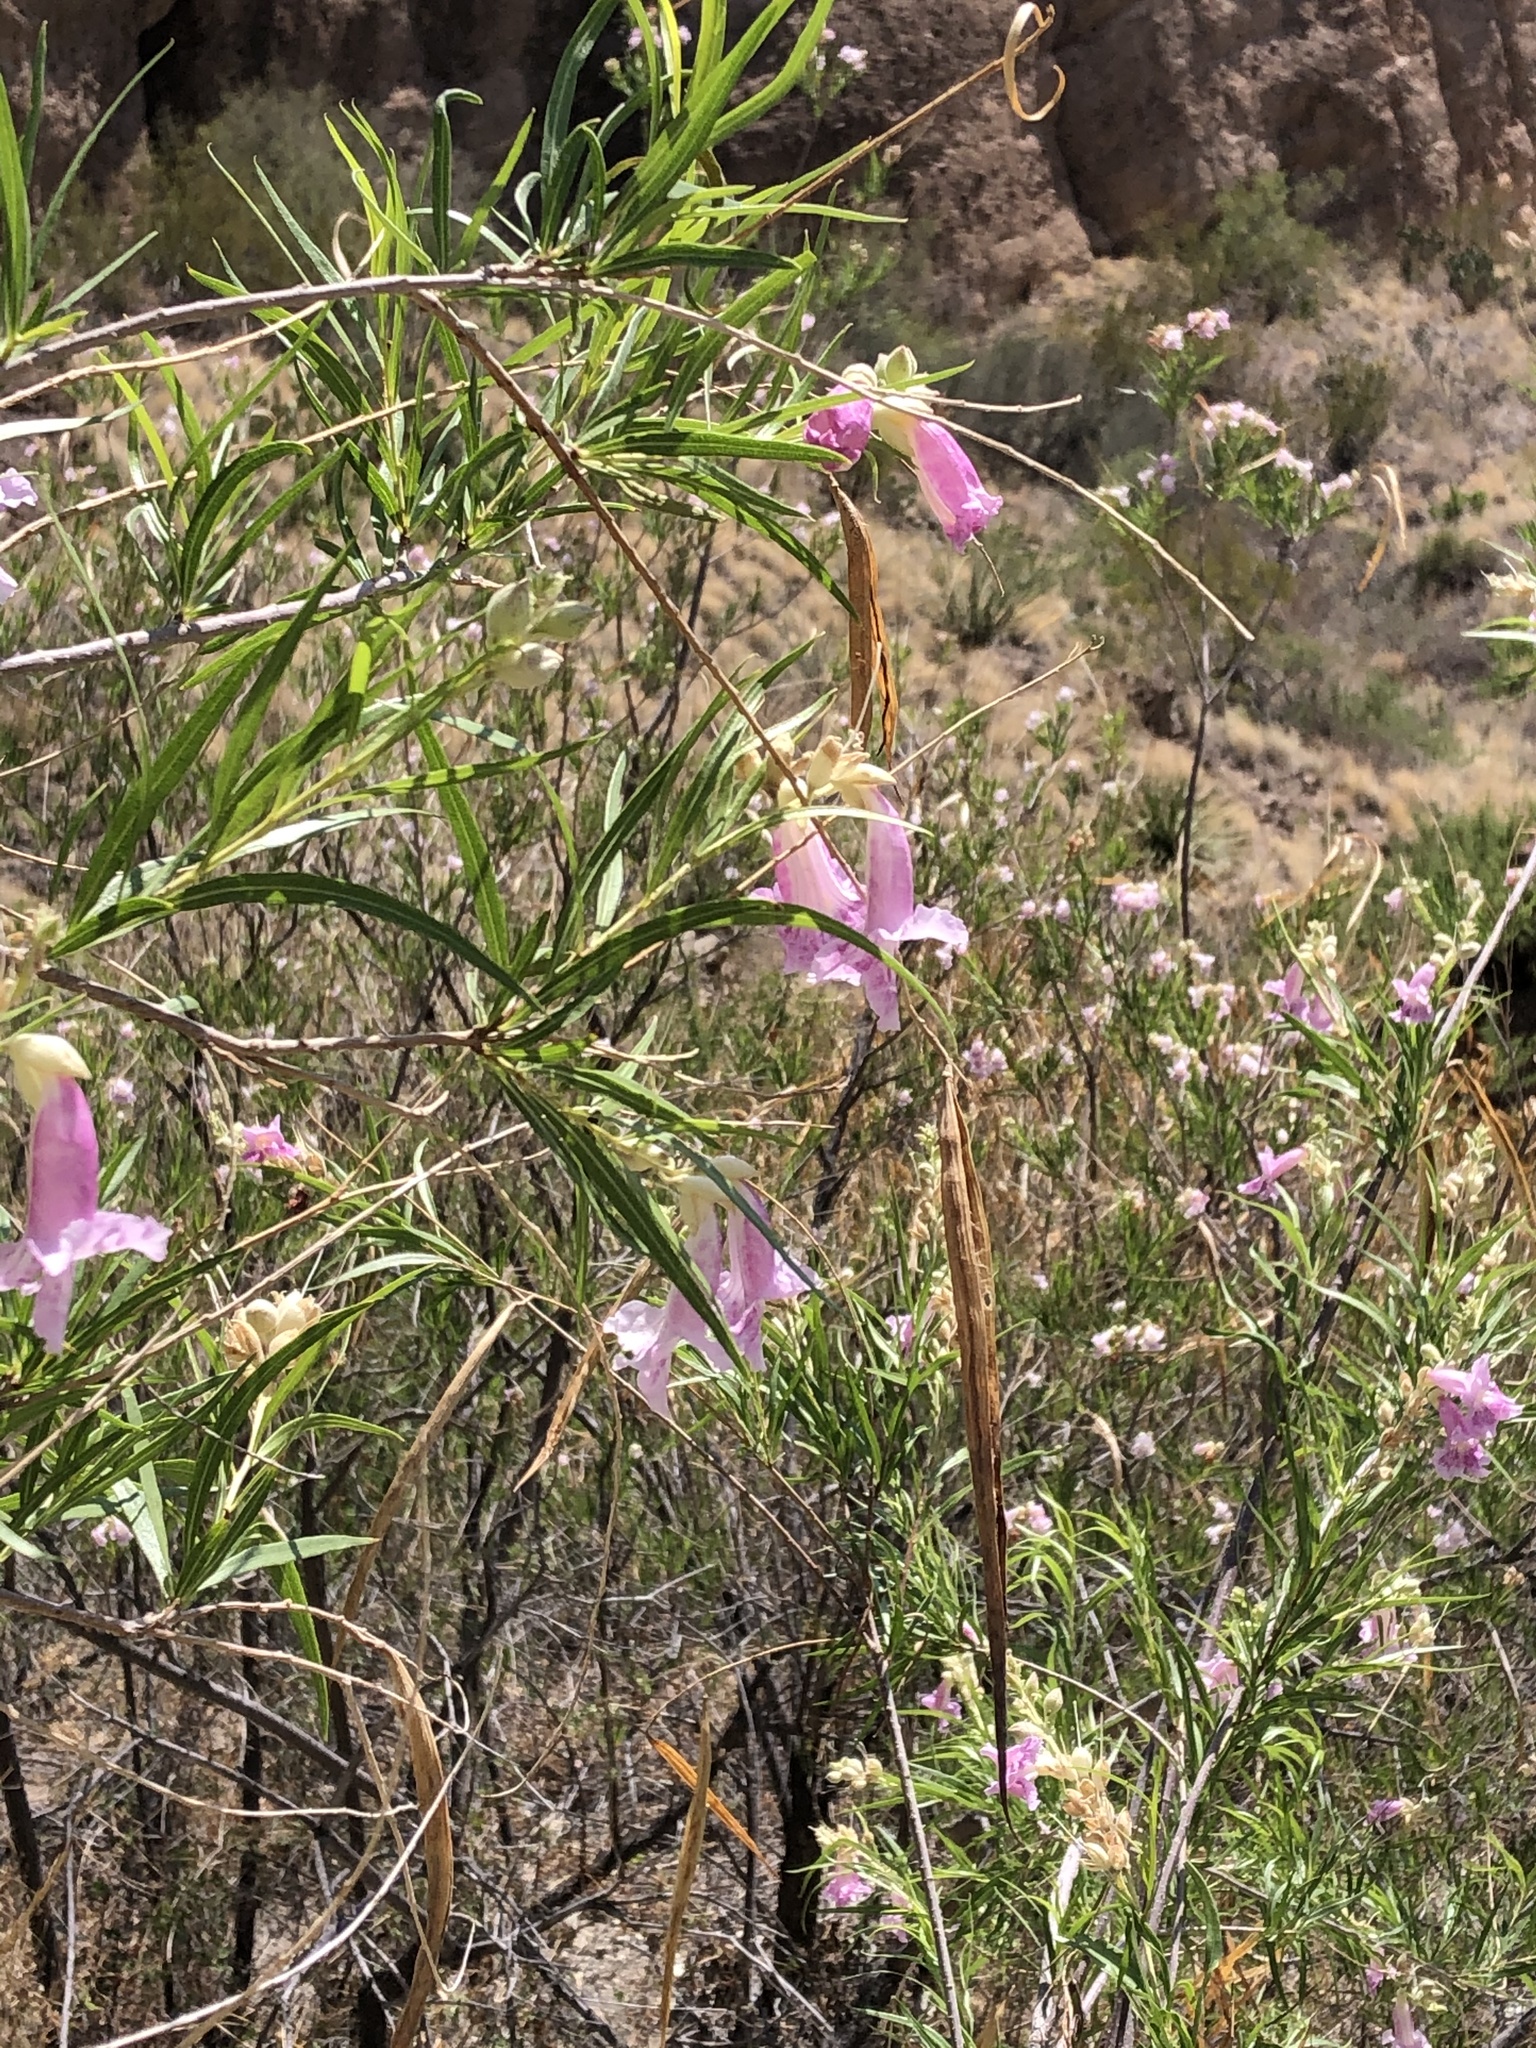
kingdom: Plantae
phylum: Tracheophyta
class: Magnoliopsida
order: Lamiales
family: Bignoniaceae
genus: Chilopsis
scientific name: Chilopsis linearis
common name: Desert-willow
